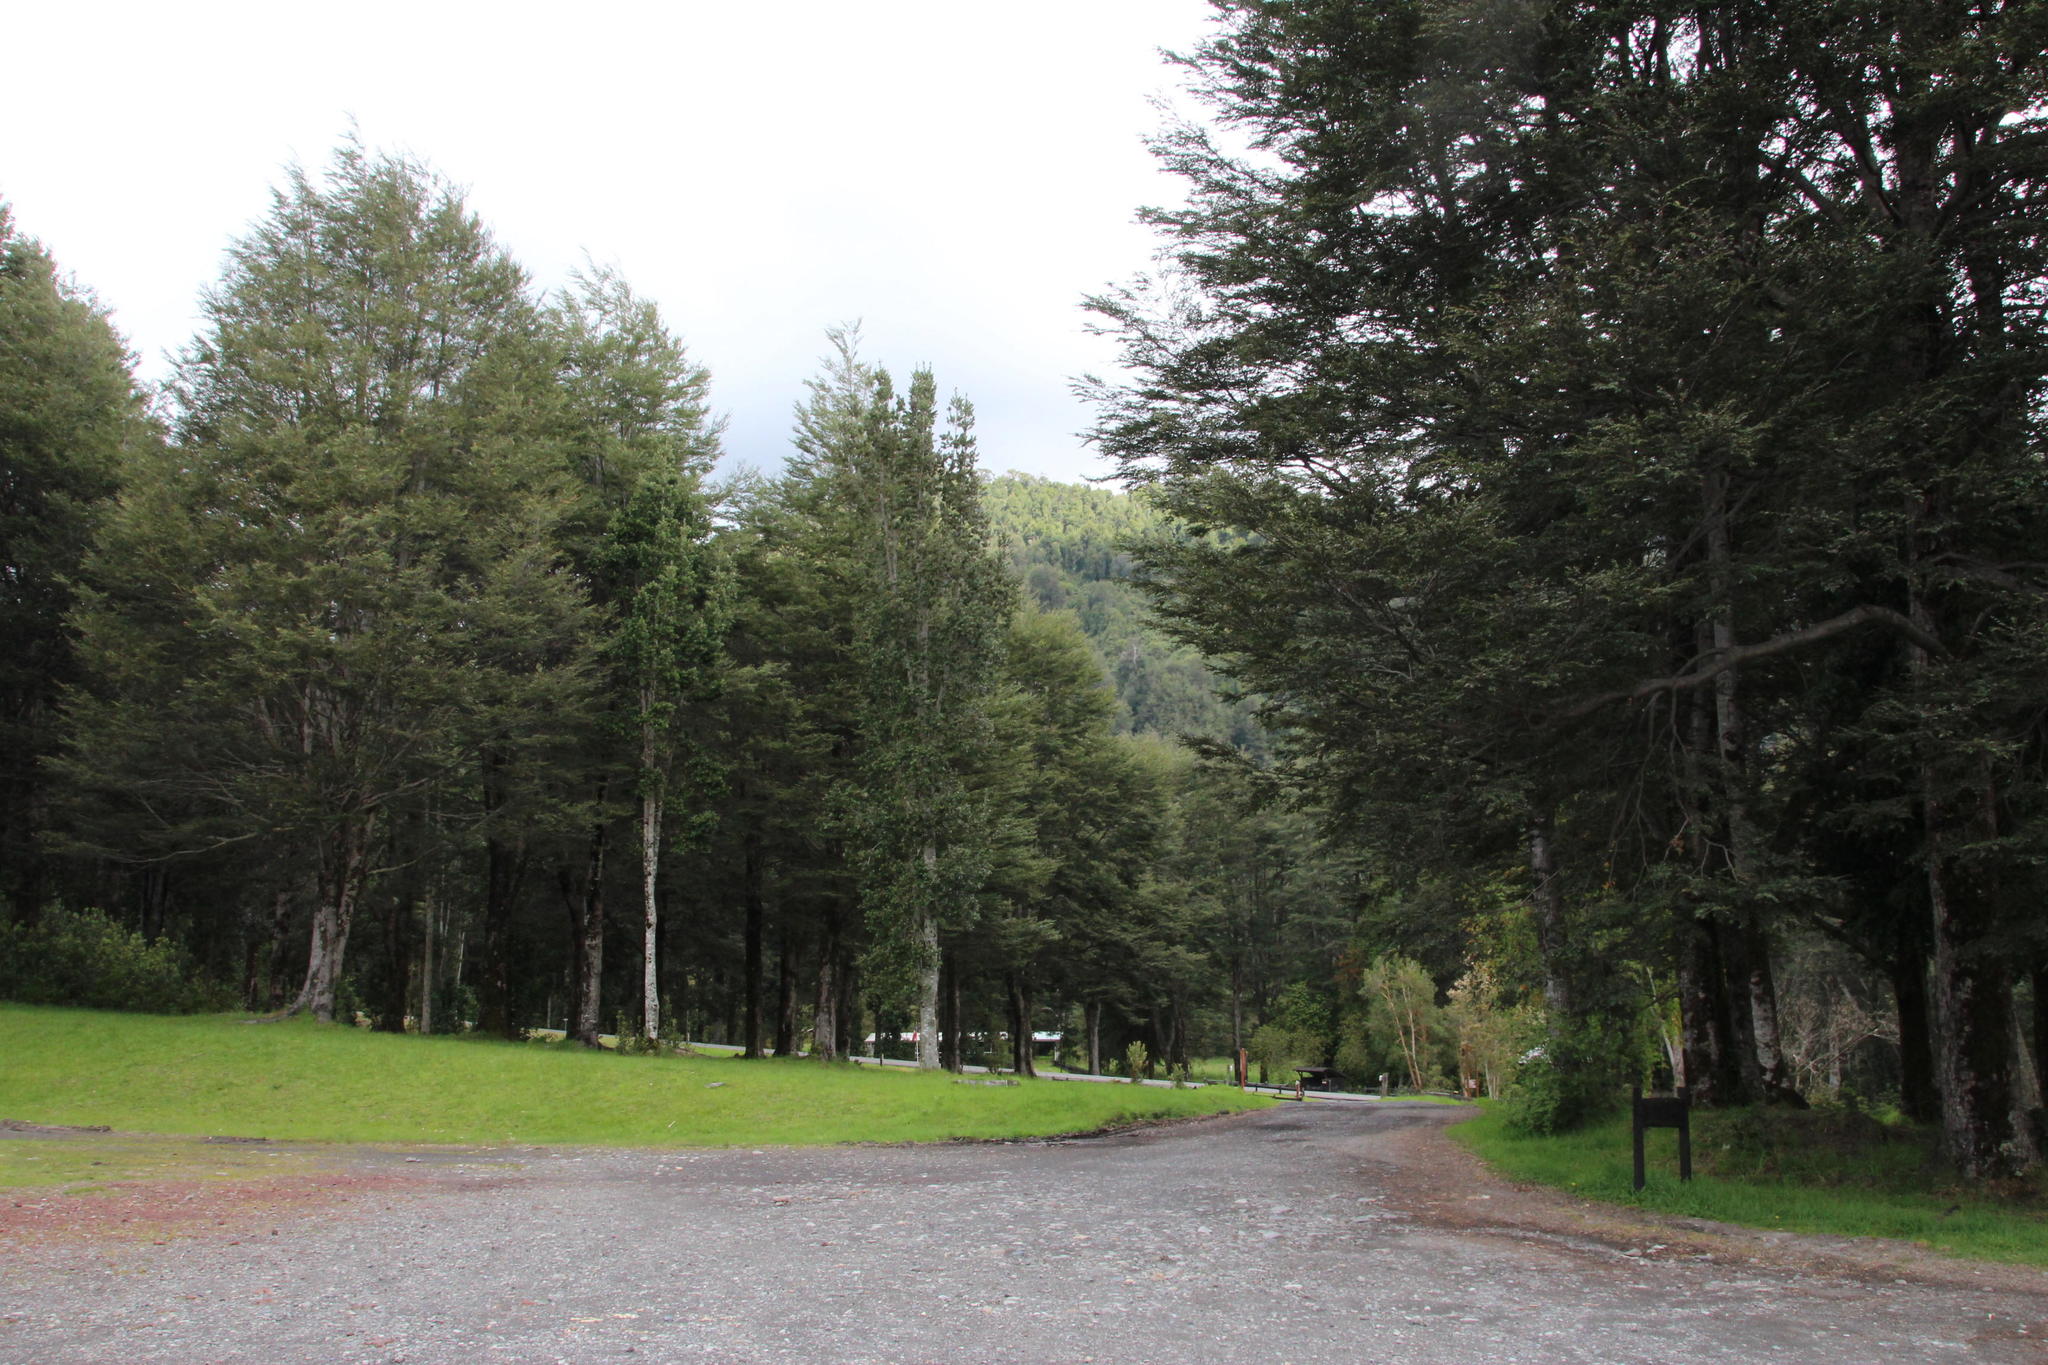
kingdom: Plantae
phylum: Tracheophyta
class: Magnoliopsida
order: Fagales
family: Nothofagaceae
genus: Nothofagus
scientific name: Nothofagus dombeyi
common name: Coigue
